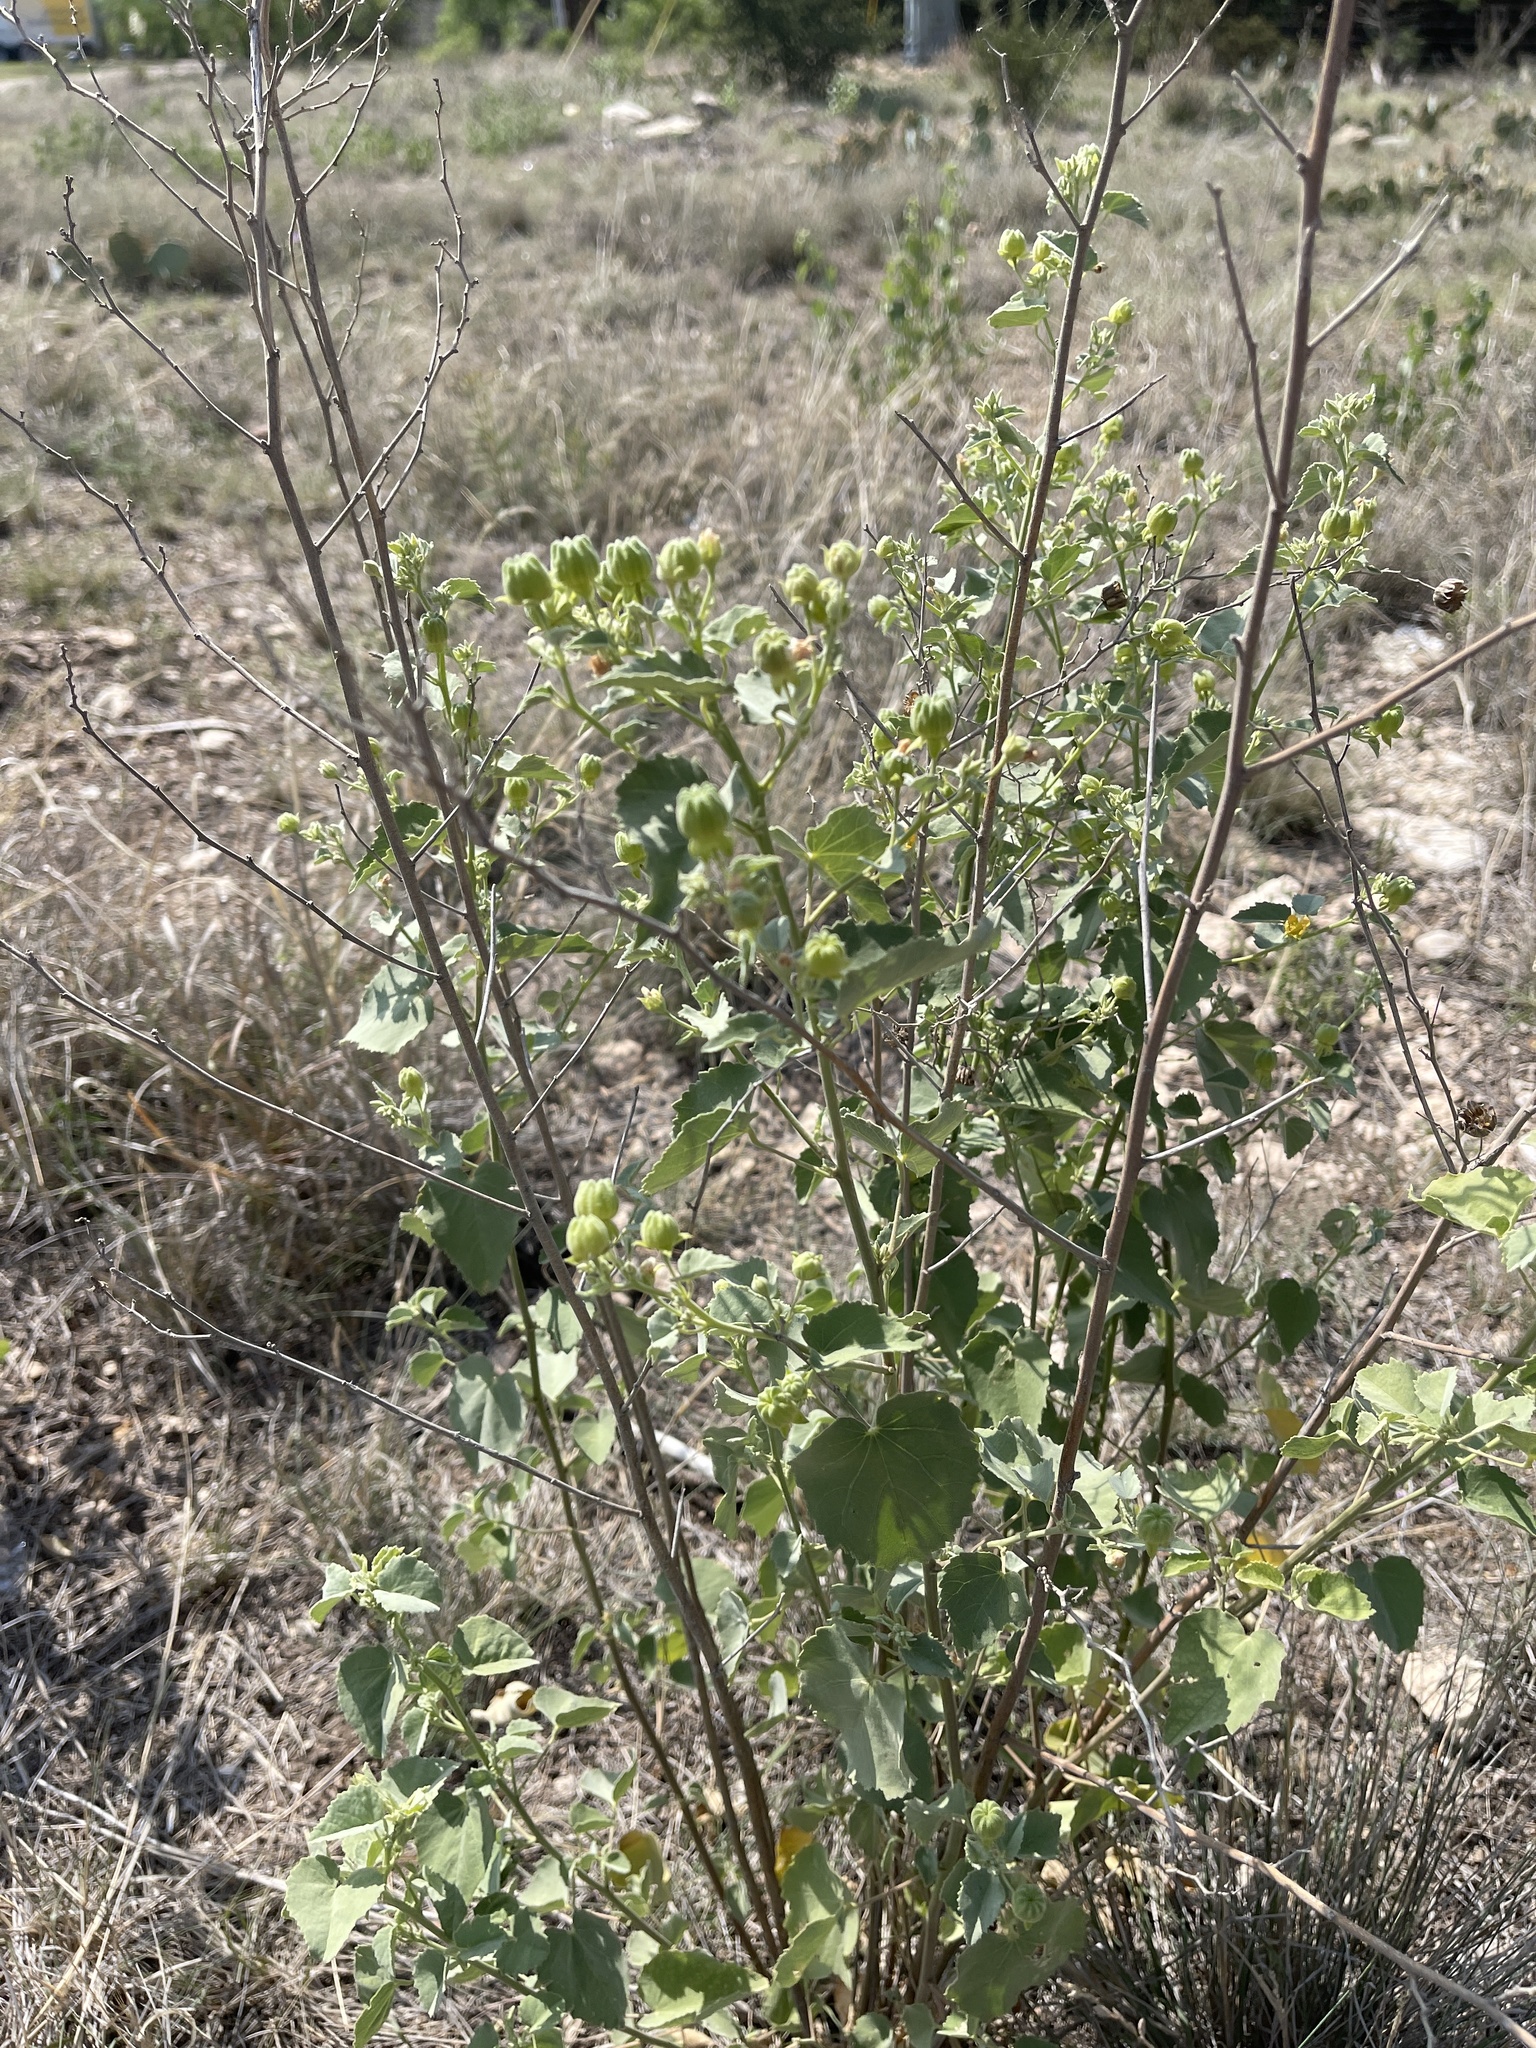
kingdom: Plantae
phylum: Tracheophyta
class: Magnoliopsida
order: Malvales
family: Malvaceae
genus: Abutilon
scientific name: Abutilon fruticosum
